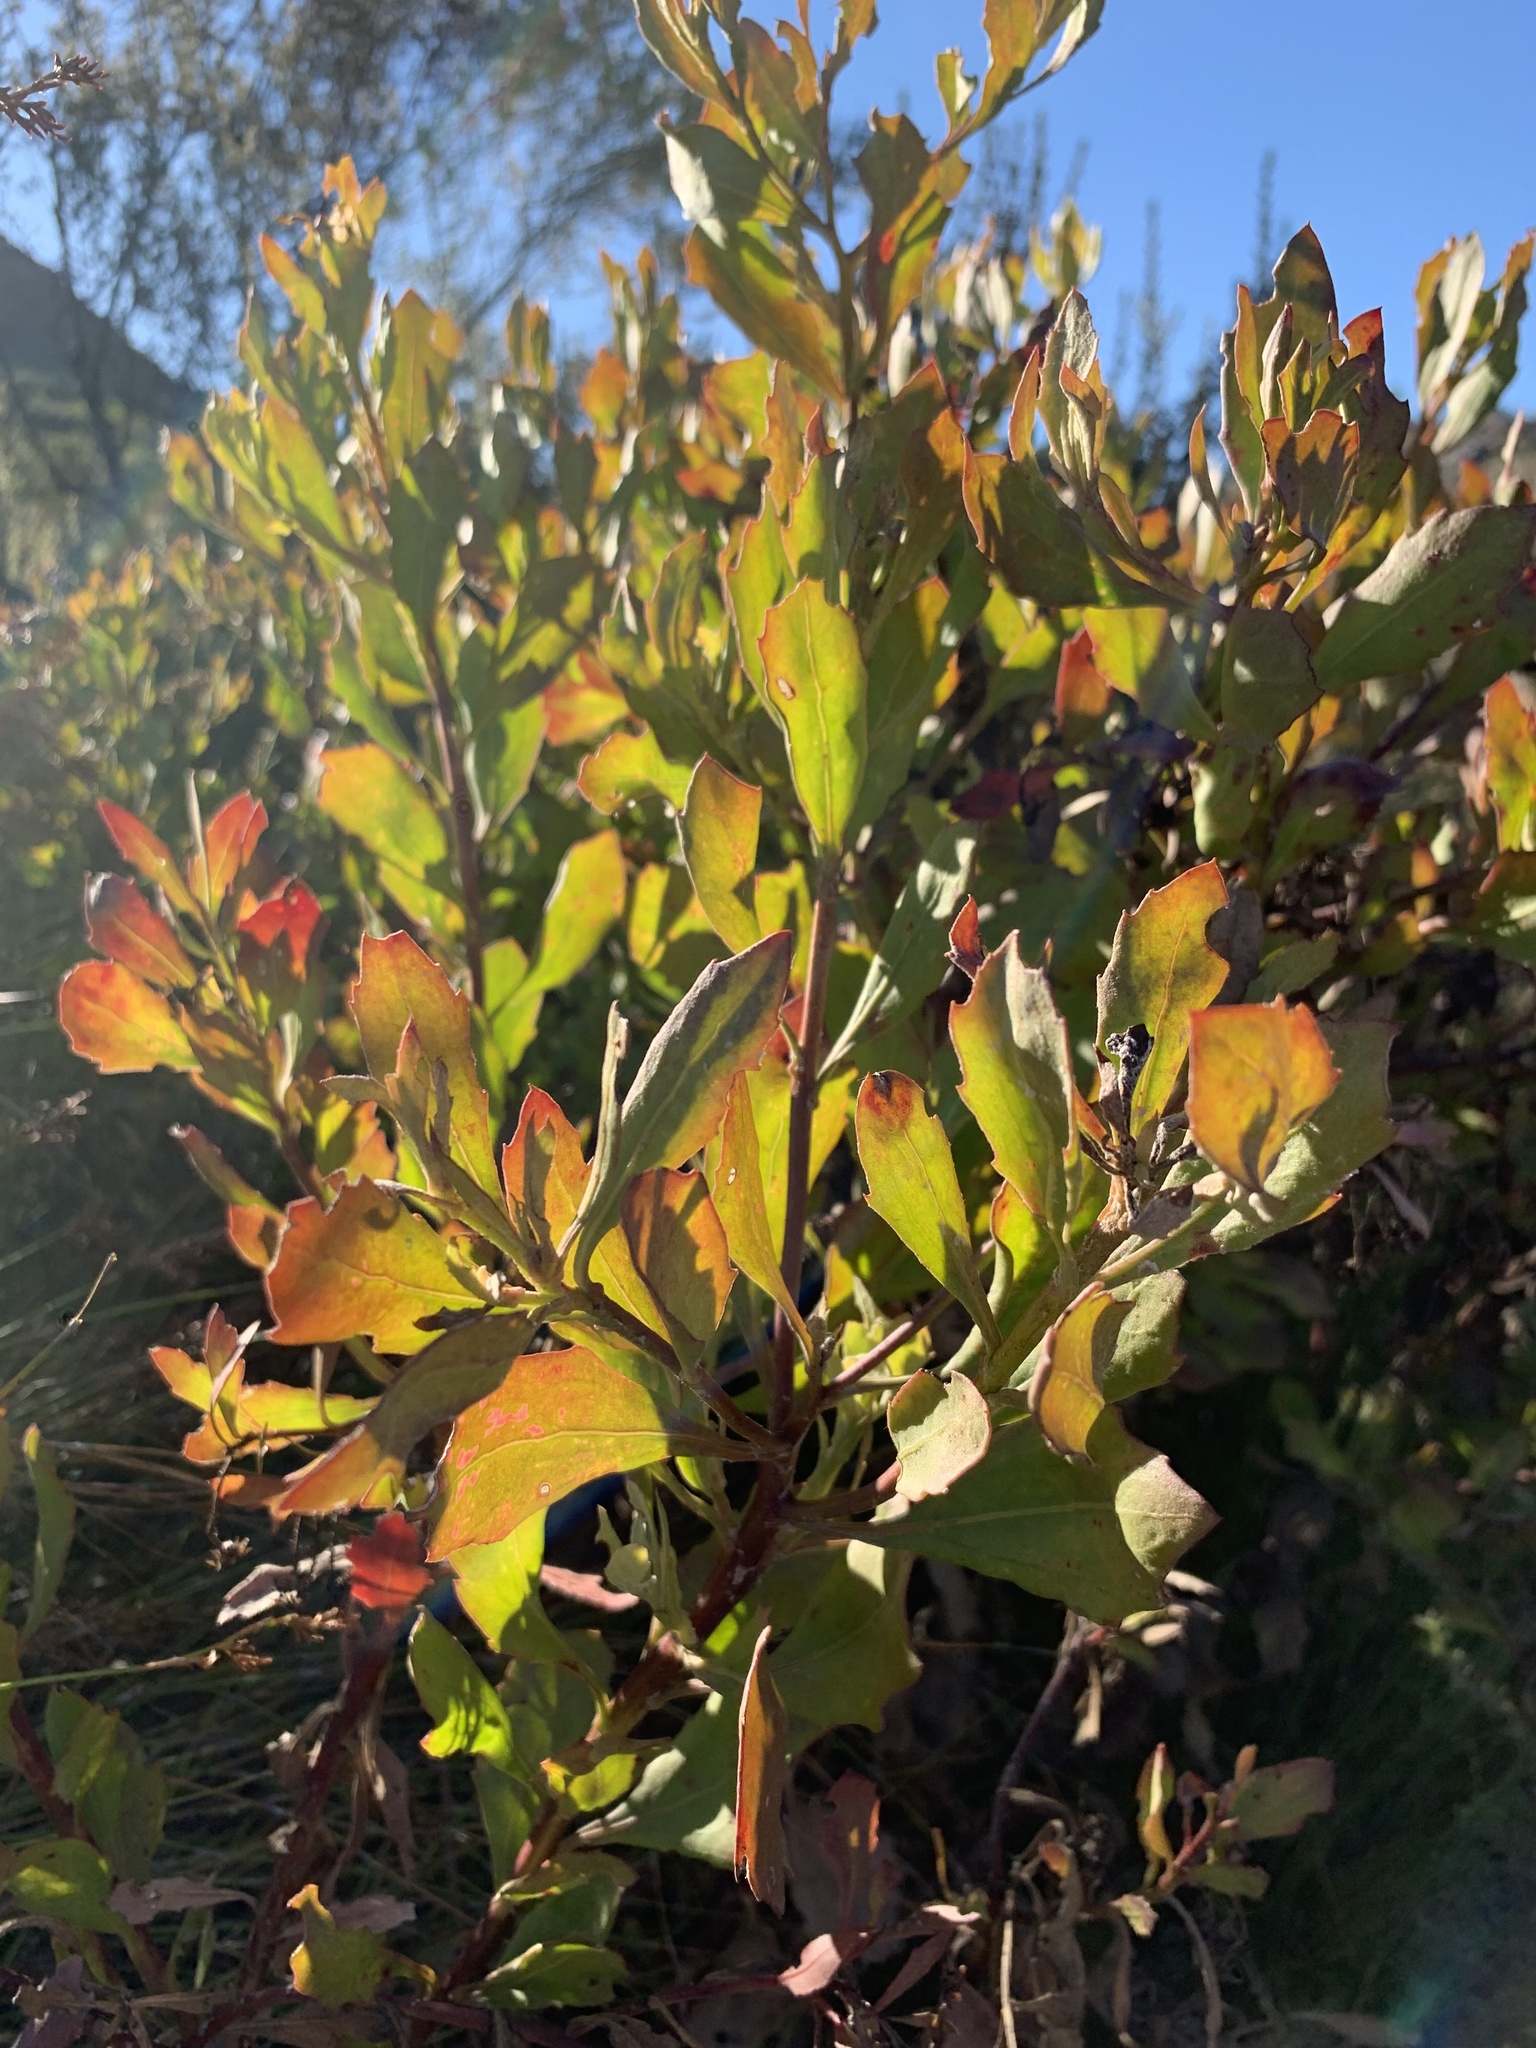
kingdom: Plantae
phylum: Tracheophyta
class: Magnoliopsida
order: Asterales
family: Asteraceae
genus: Osteospermum
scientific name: Osteospermum moniliferum
